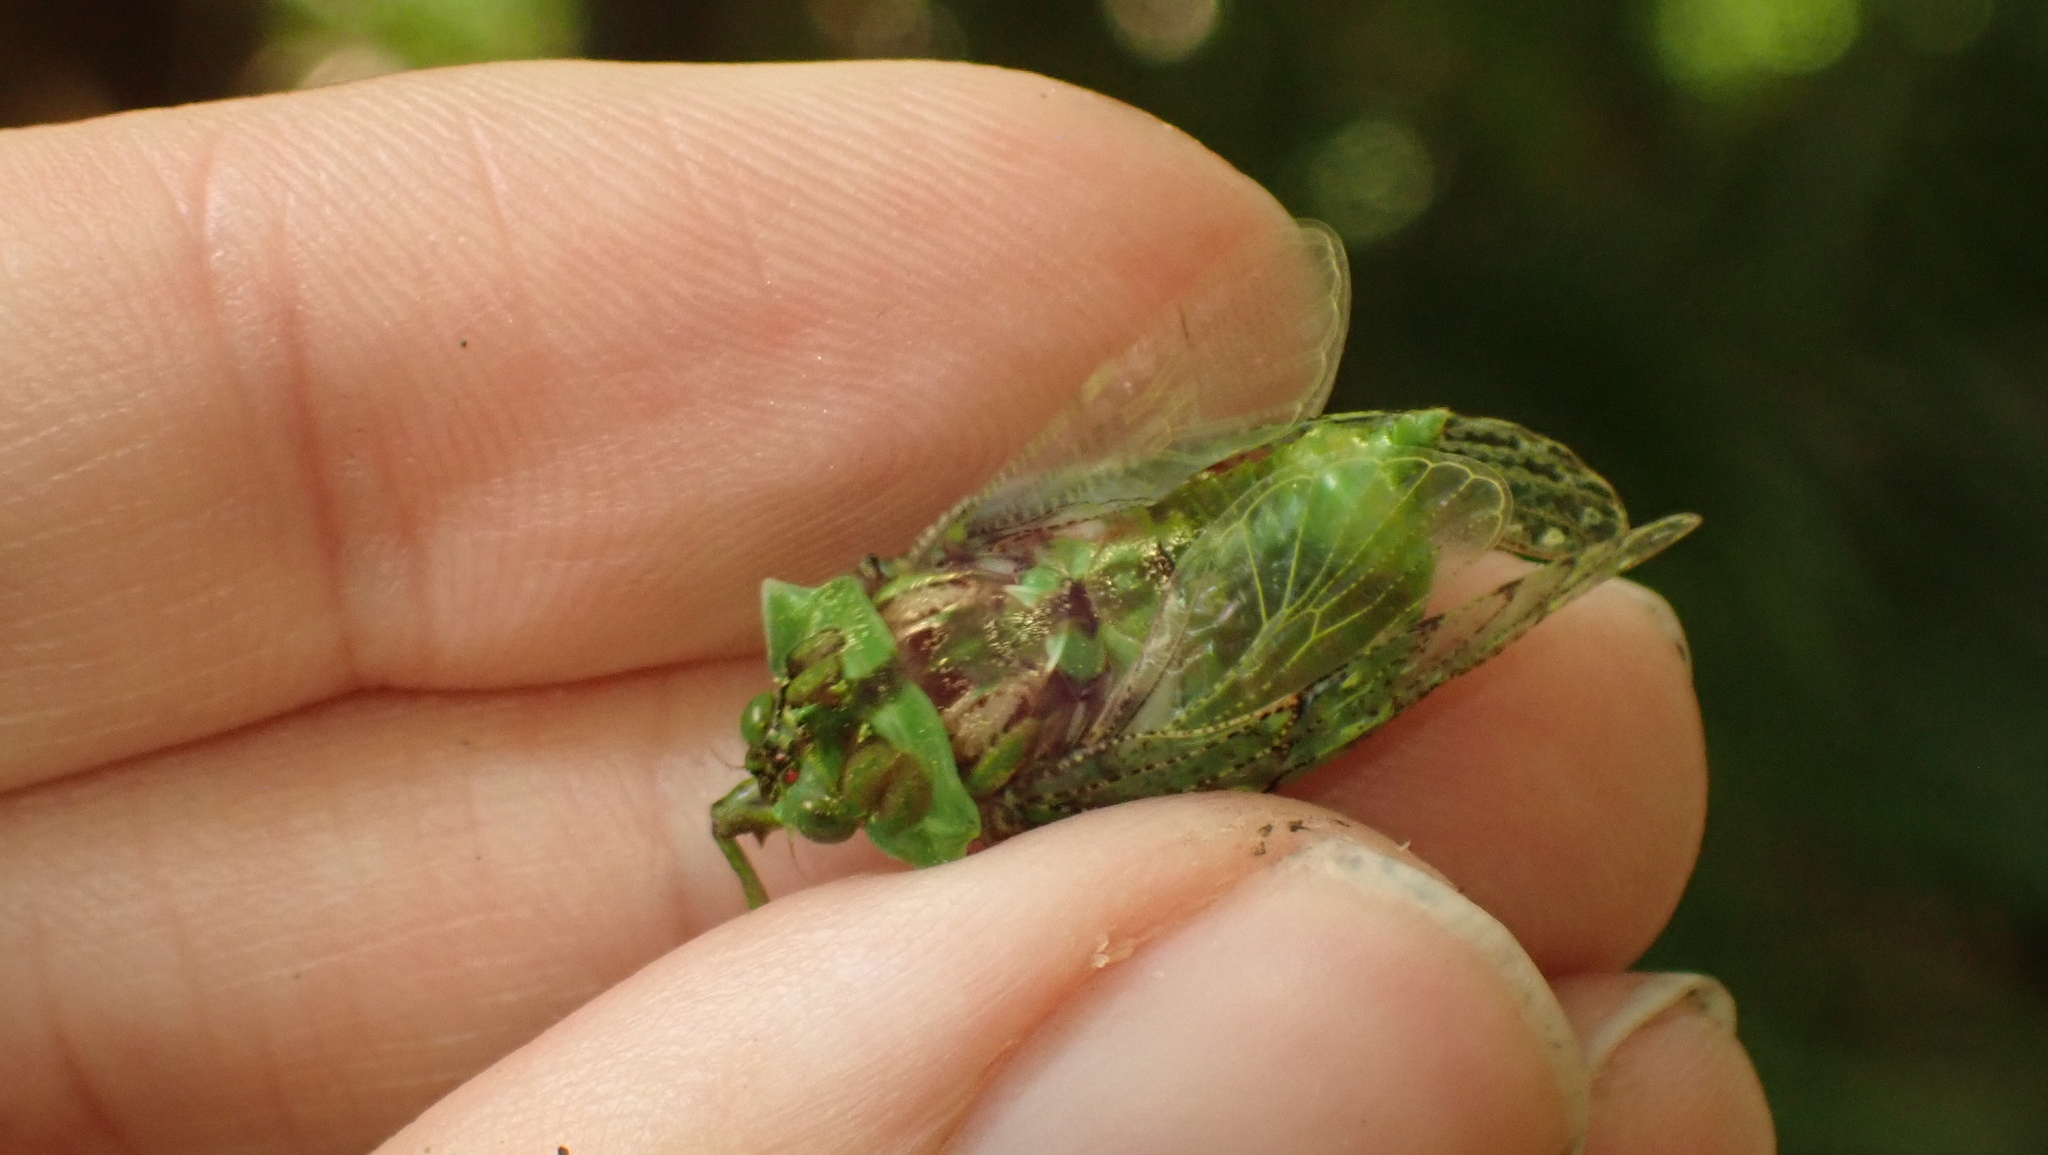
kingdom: Animalia
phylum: Arthropoda
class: Insecta
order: Hemiptera
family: Cicadidae
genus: Borencona
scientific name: Borencona aguadilla
